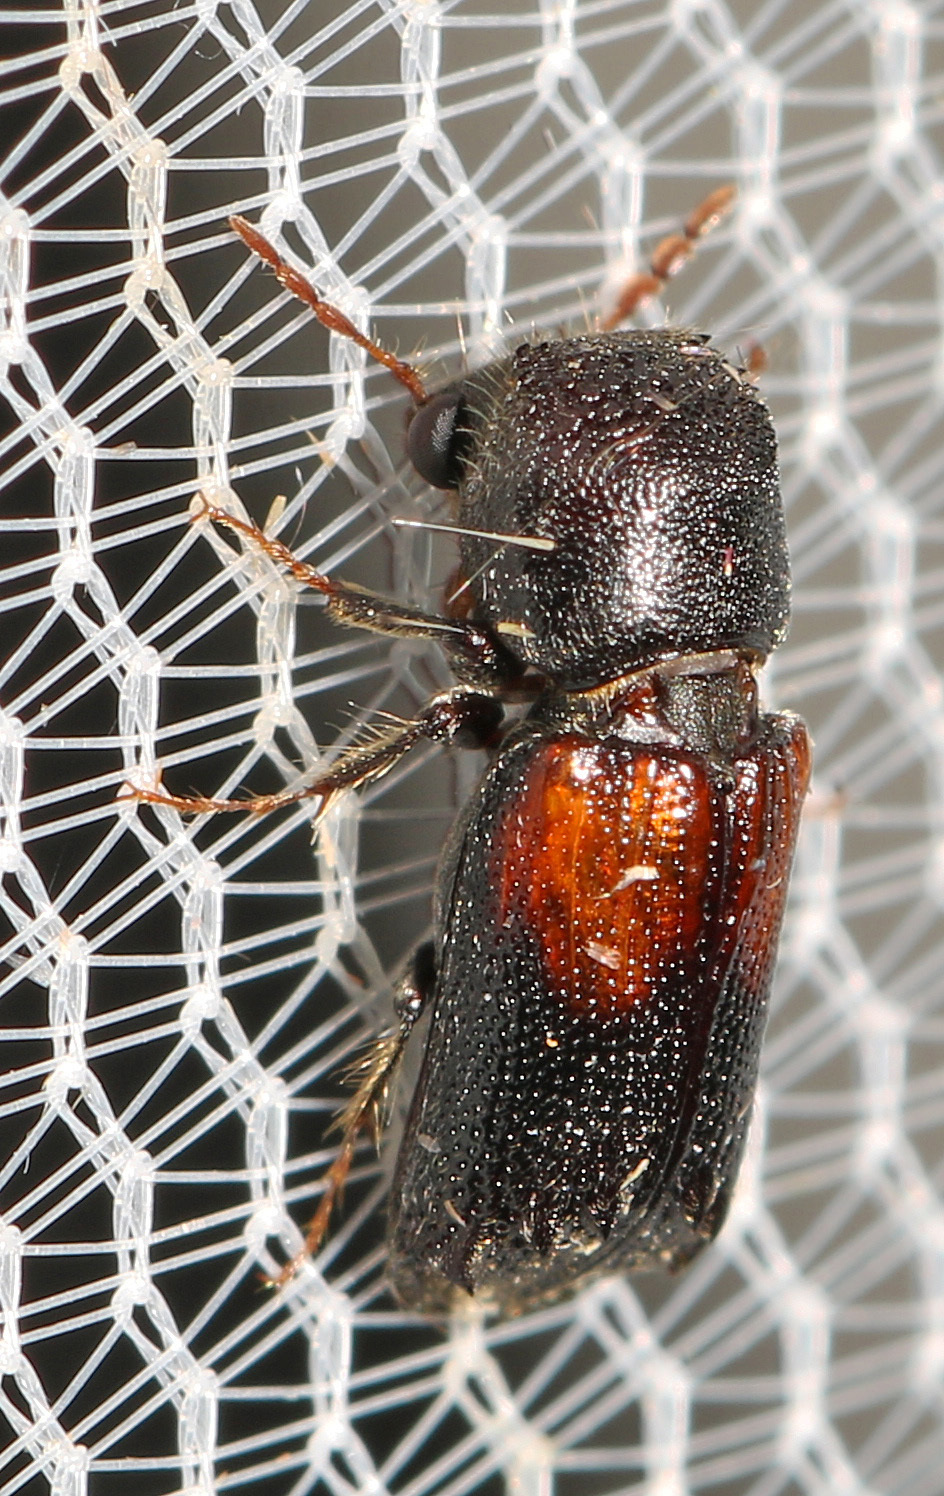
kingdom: Animalia
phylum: Arthropoda
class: Insecta
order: Coleoptera
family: Bostrichidae
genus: Xylobiops
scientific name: Xylobiops basilaris
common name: Red-shouldered bostrichid
